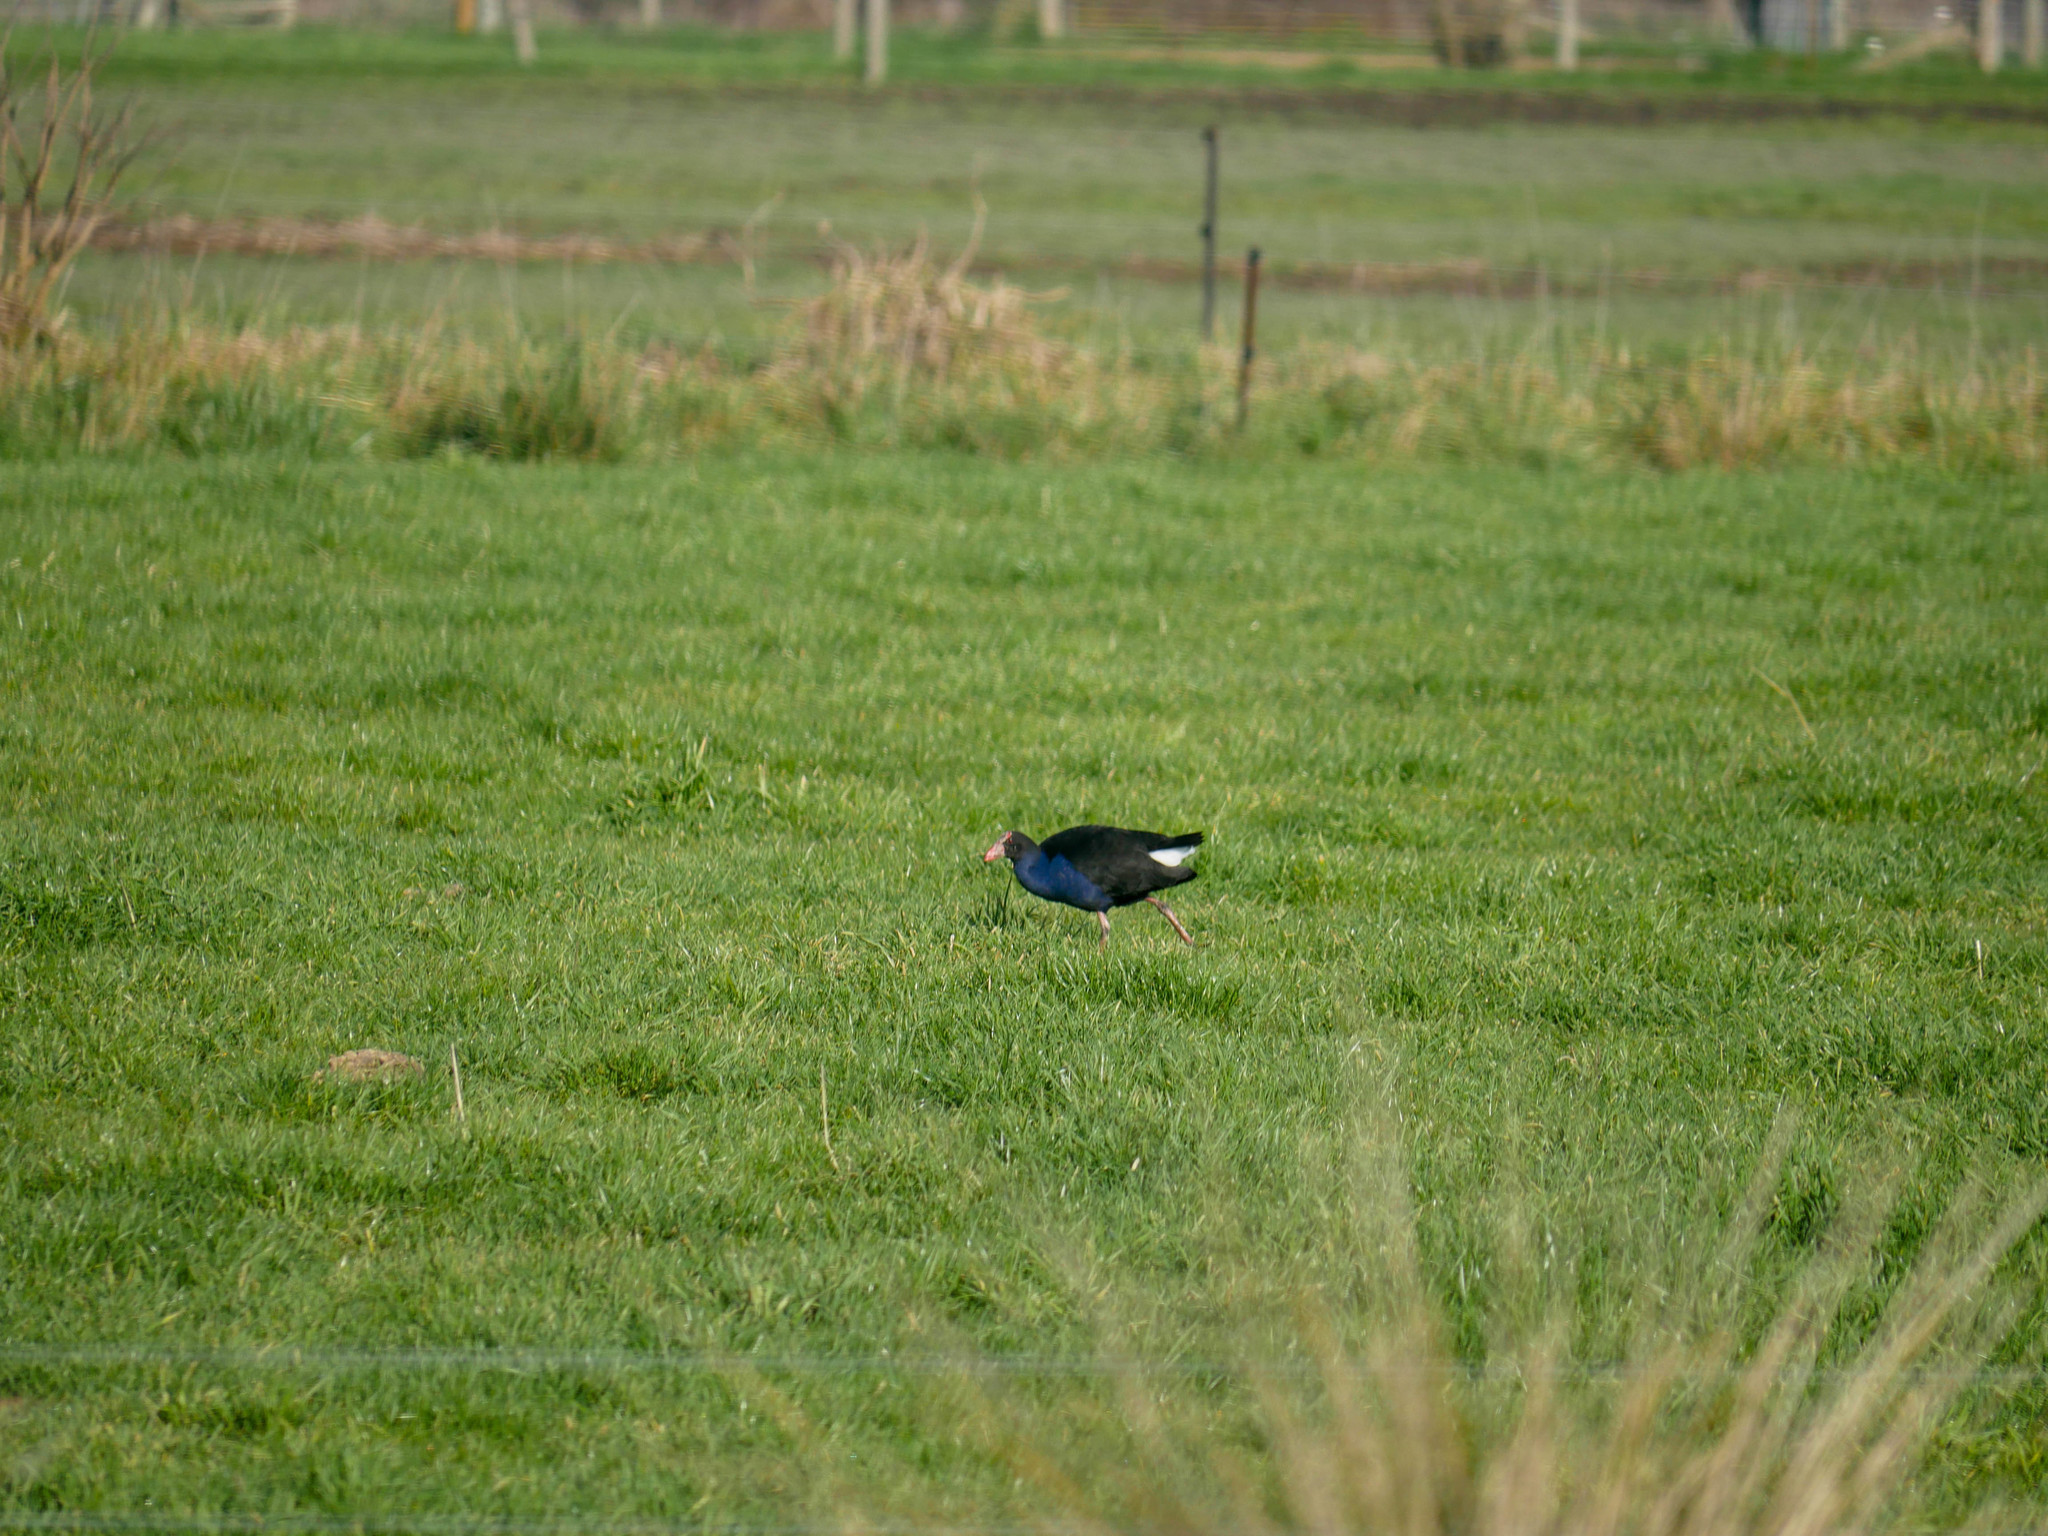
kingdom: Animalia
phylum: Chordata
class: Aves
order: Gruiformes
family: Rallidae
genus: Porphyrio
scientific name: Porphyrio melanotus
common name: Australasian swamphen
